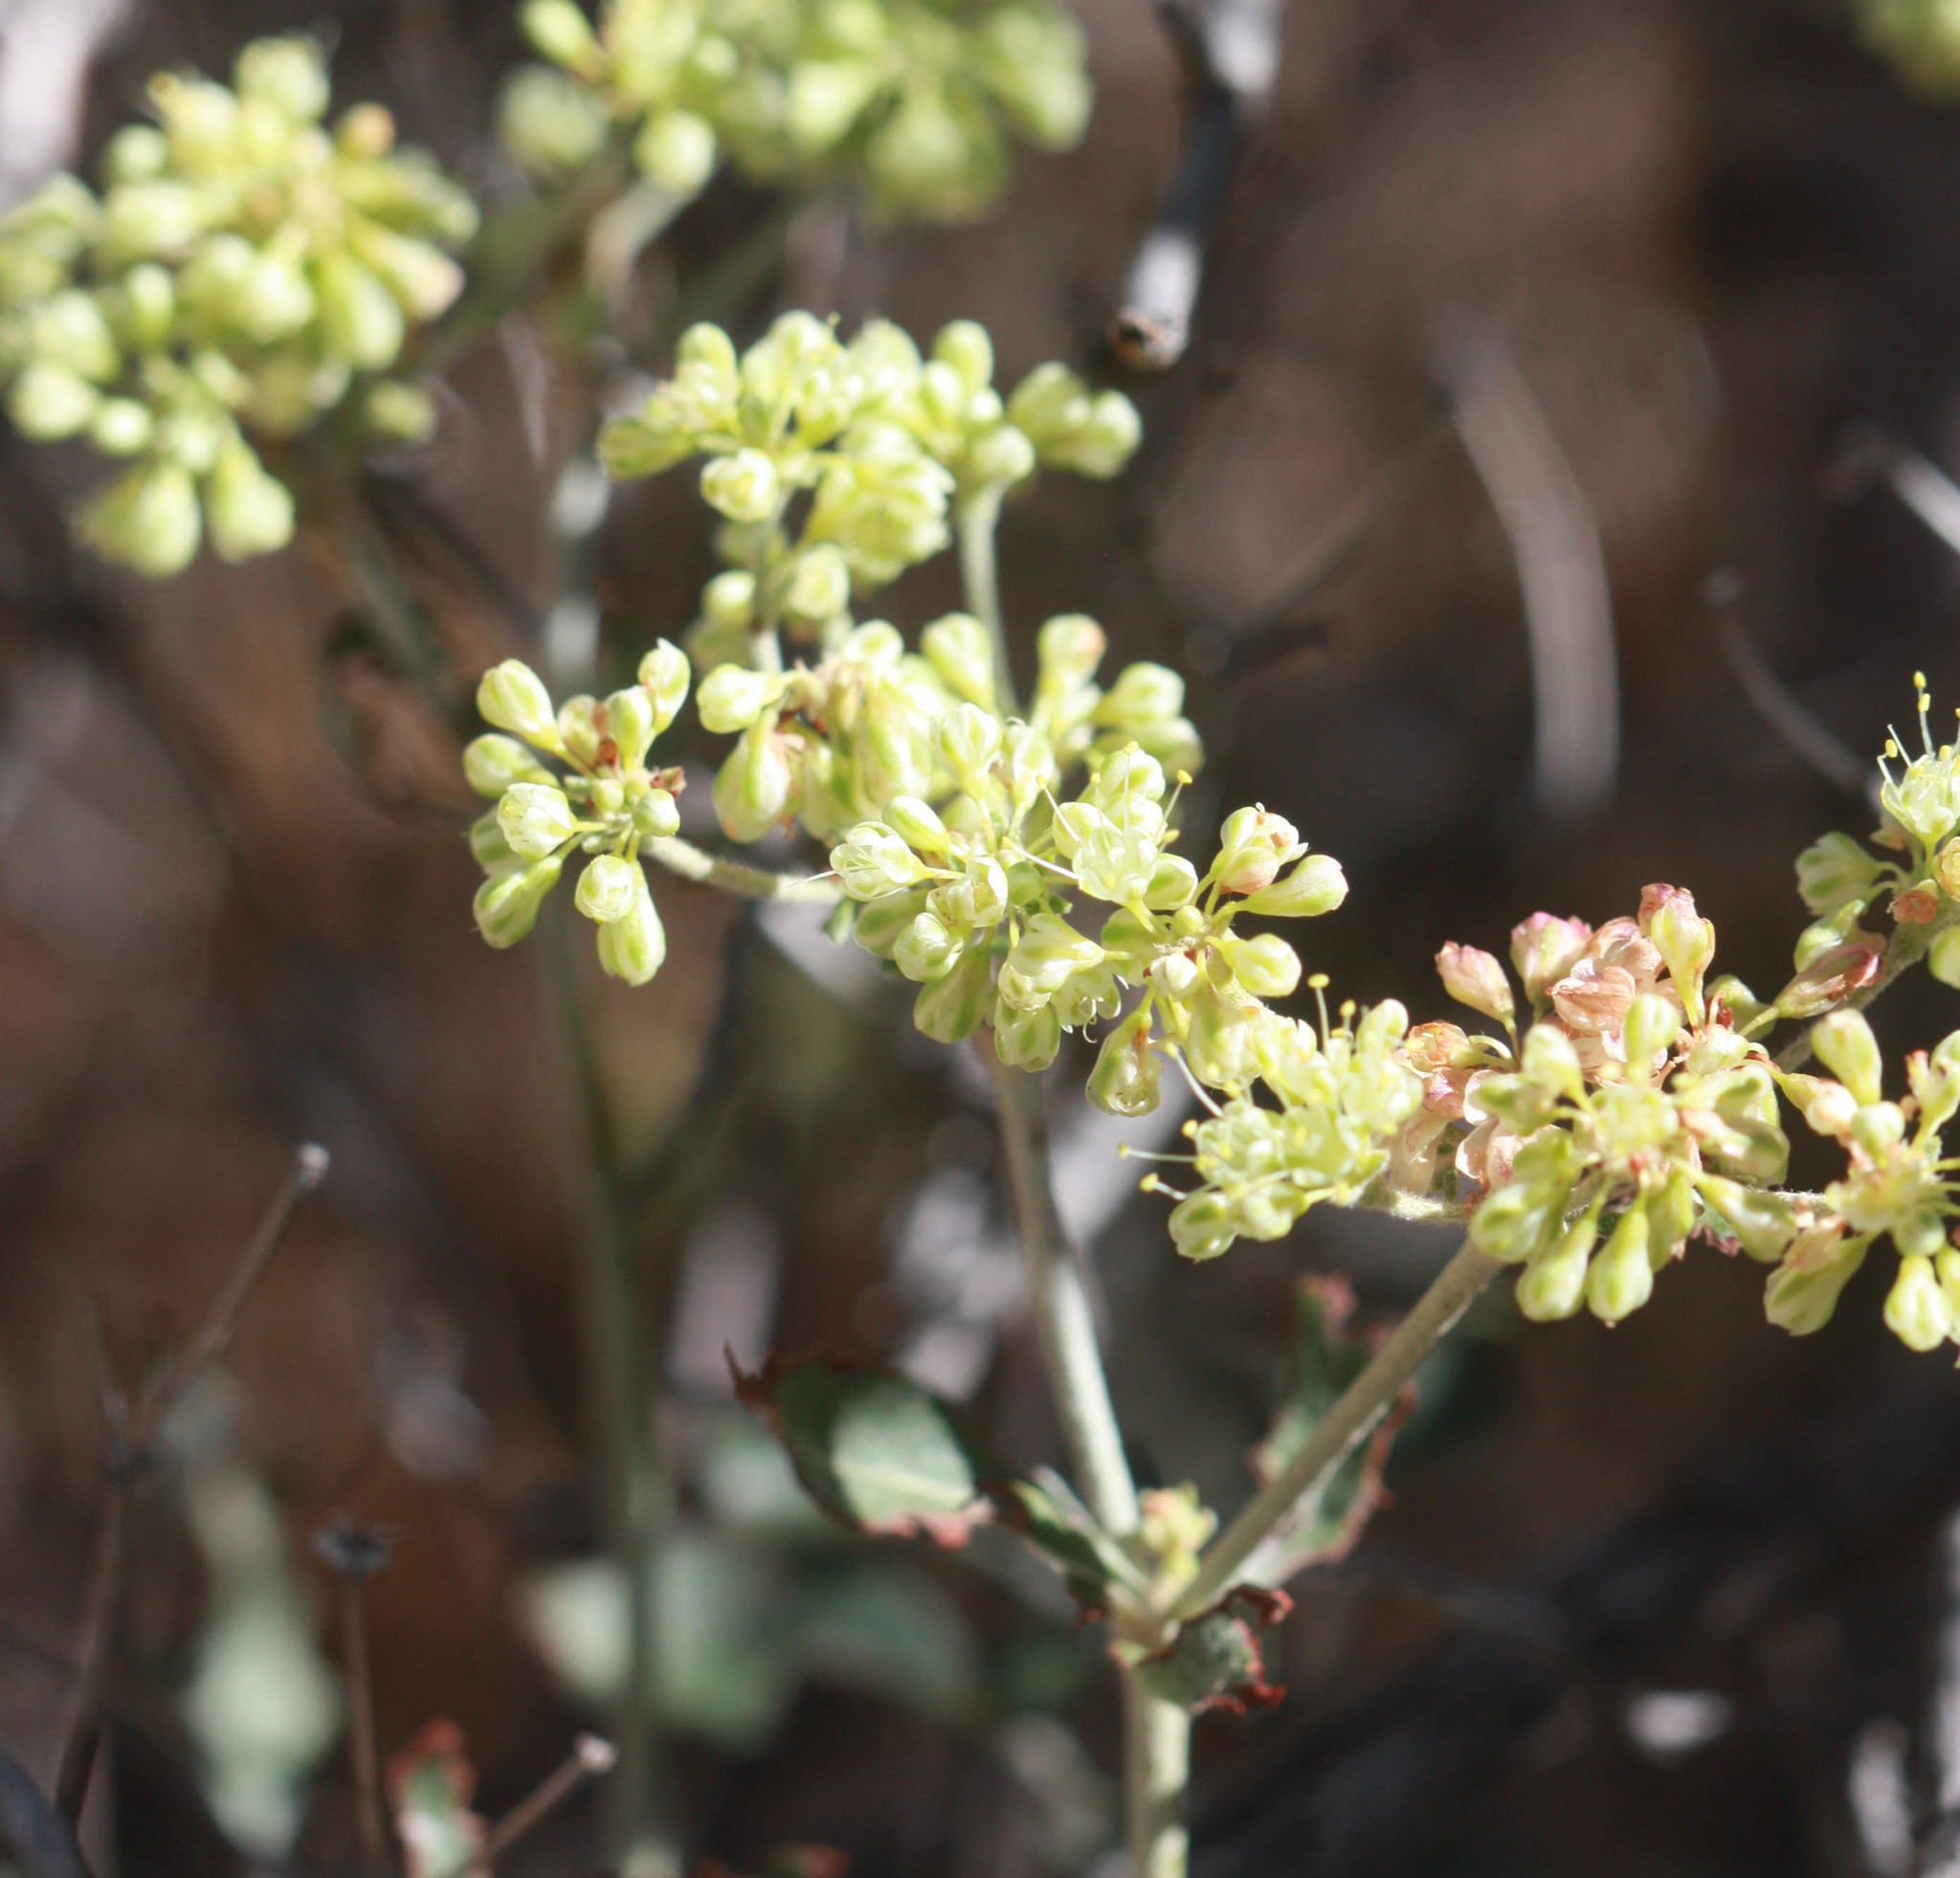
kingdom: Plantae
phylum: Tracheophyta
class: Magnoliopsida
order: Caryophyllales
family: Polygonaceae
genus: Eriogonum
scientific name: Eriogonum umbellatum
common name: Sulfur-buckwheat
